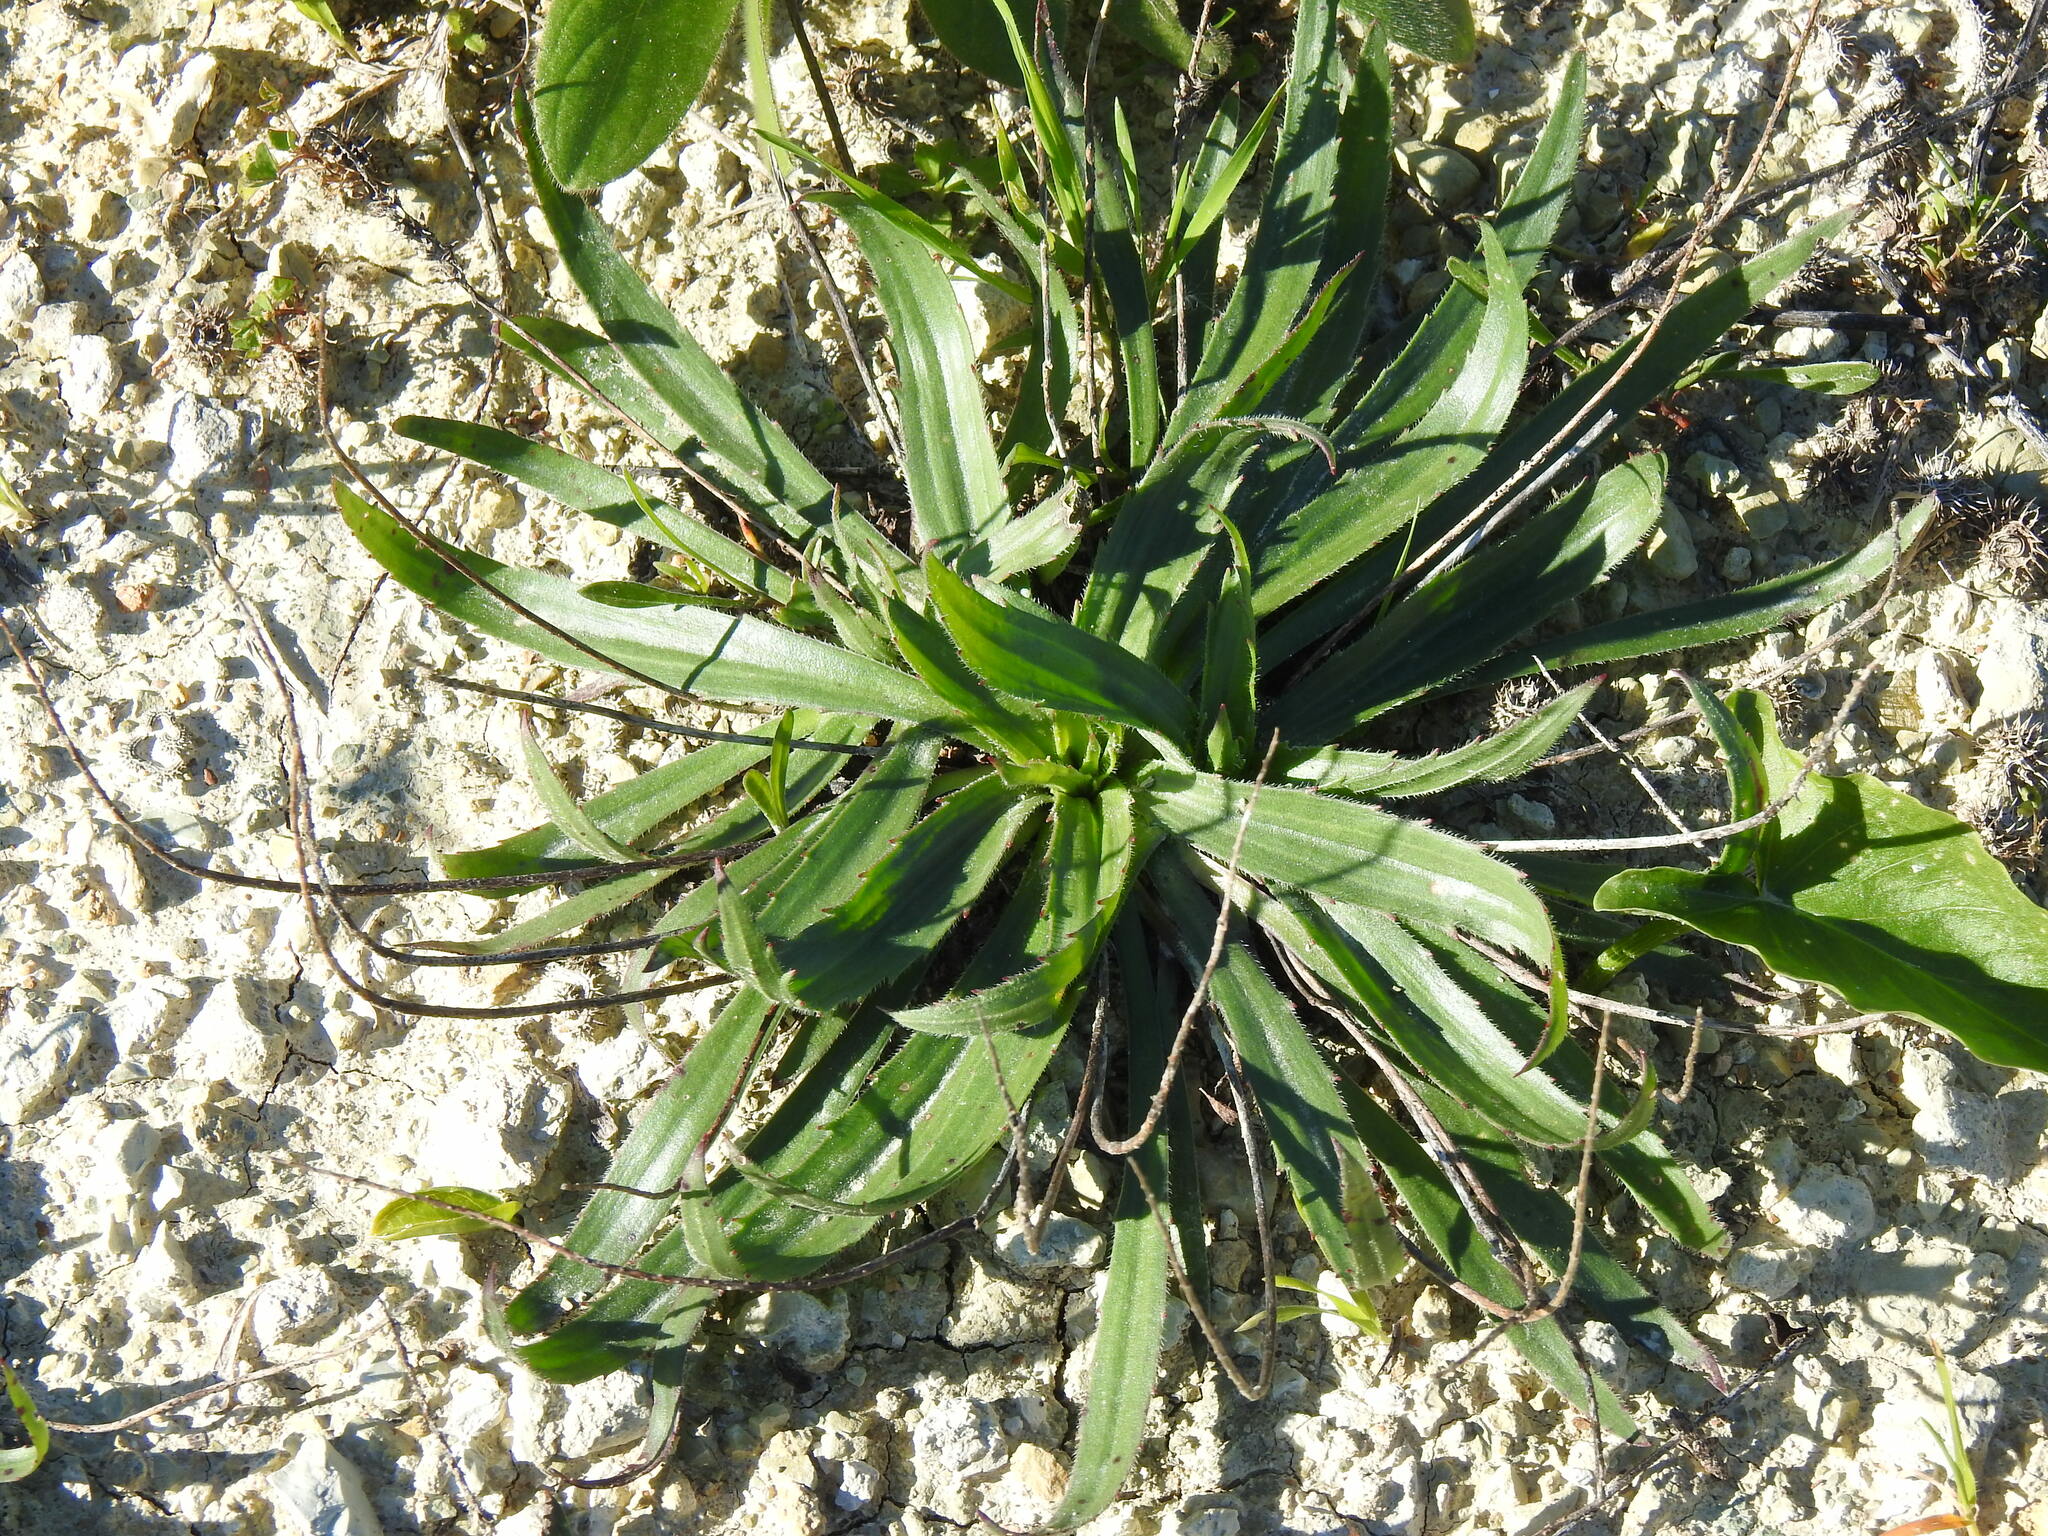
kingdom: Plantae
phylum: Tracheophyta
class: Magnoliopsida
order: Lamiales
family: Plantaginaceae
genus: Plantago
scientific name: Plantago serraria
